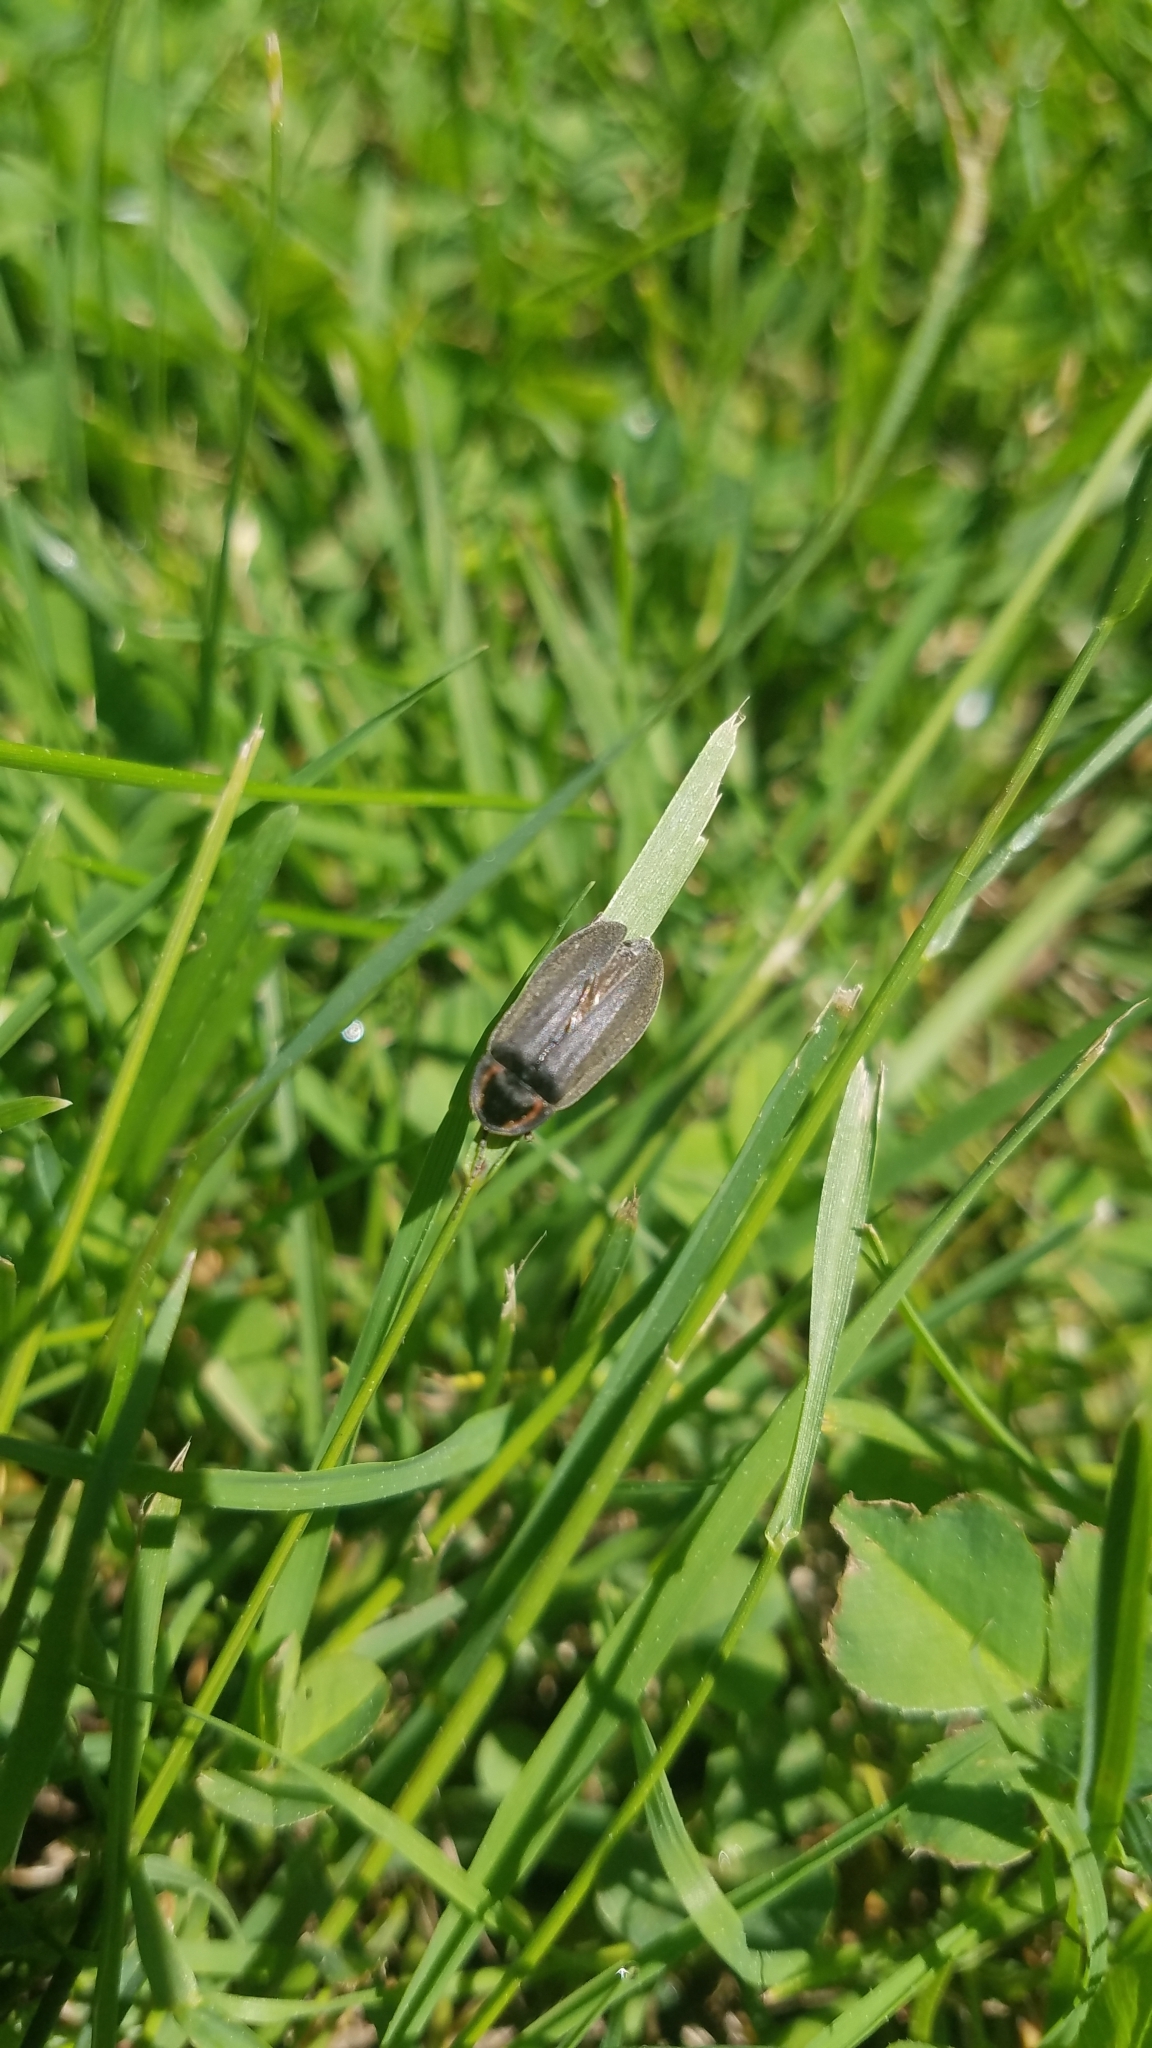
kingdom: Animalia
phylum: Arthropoda
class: Insecta
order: Coleoptera
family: Lampyridae
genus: Photinus
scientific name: Photinus corrusca
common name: Winter firefly
